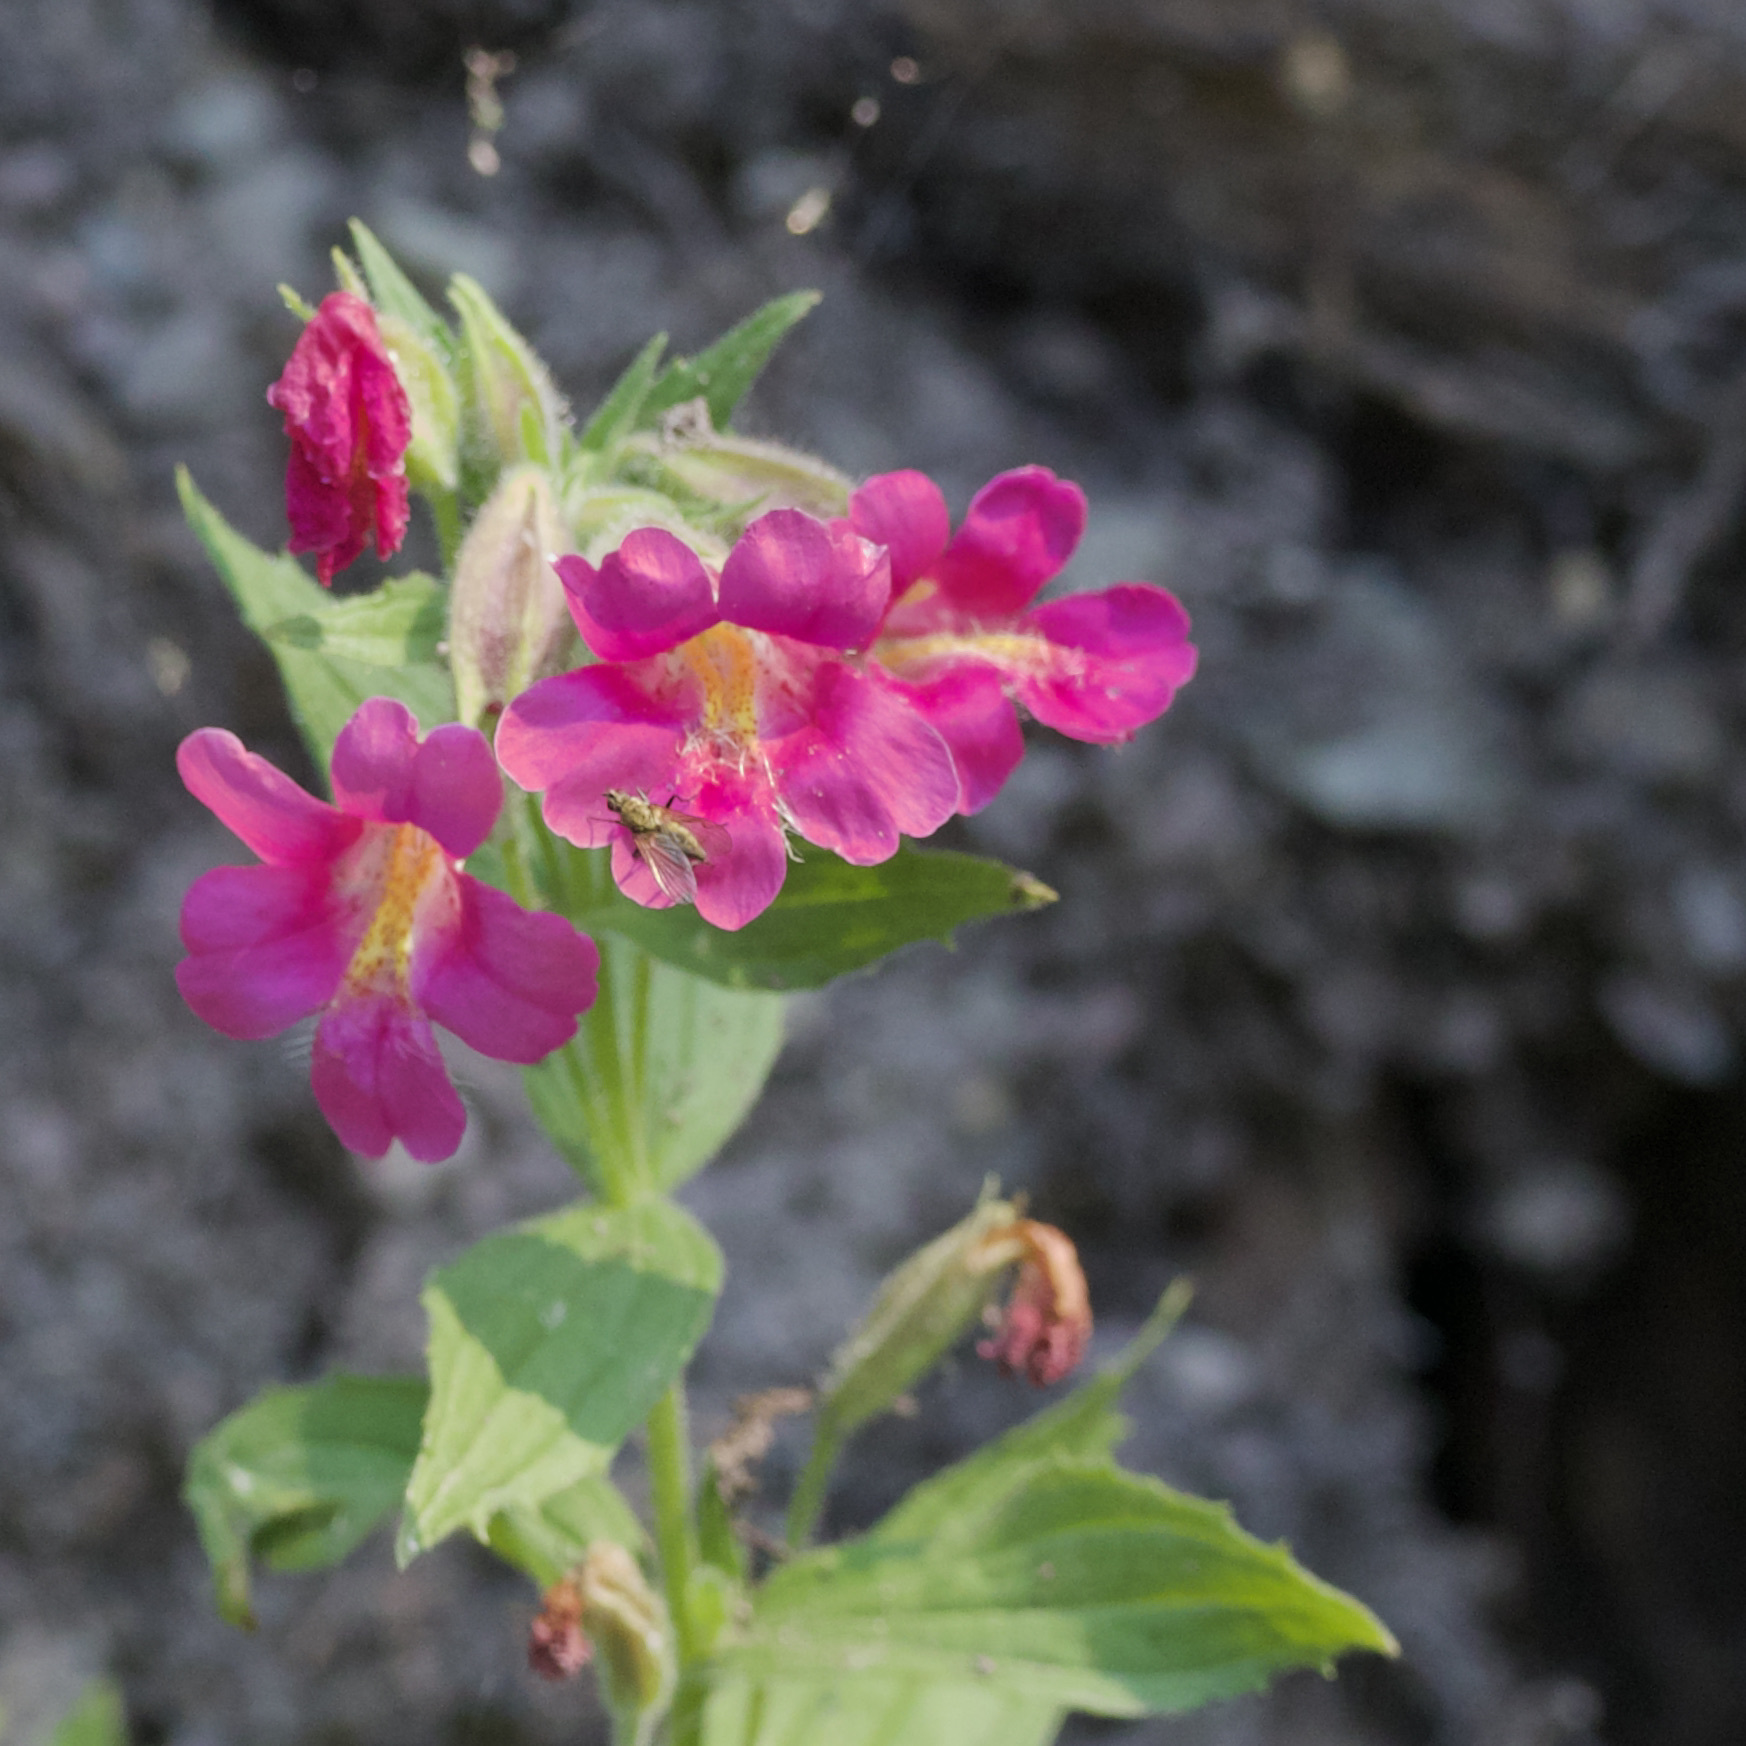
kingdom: Plantae
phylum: Tracheophyta
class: Magnoliopsida
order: Lamiales
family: Phrymaceae
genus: Erythranthe
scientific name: Erythranthe lewisii
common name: Lewis's monkey-flower
